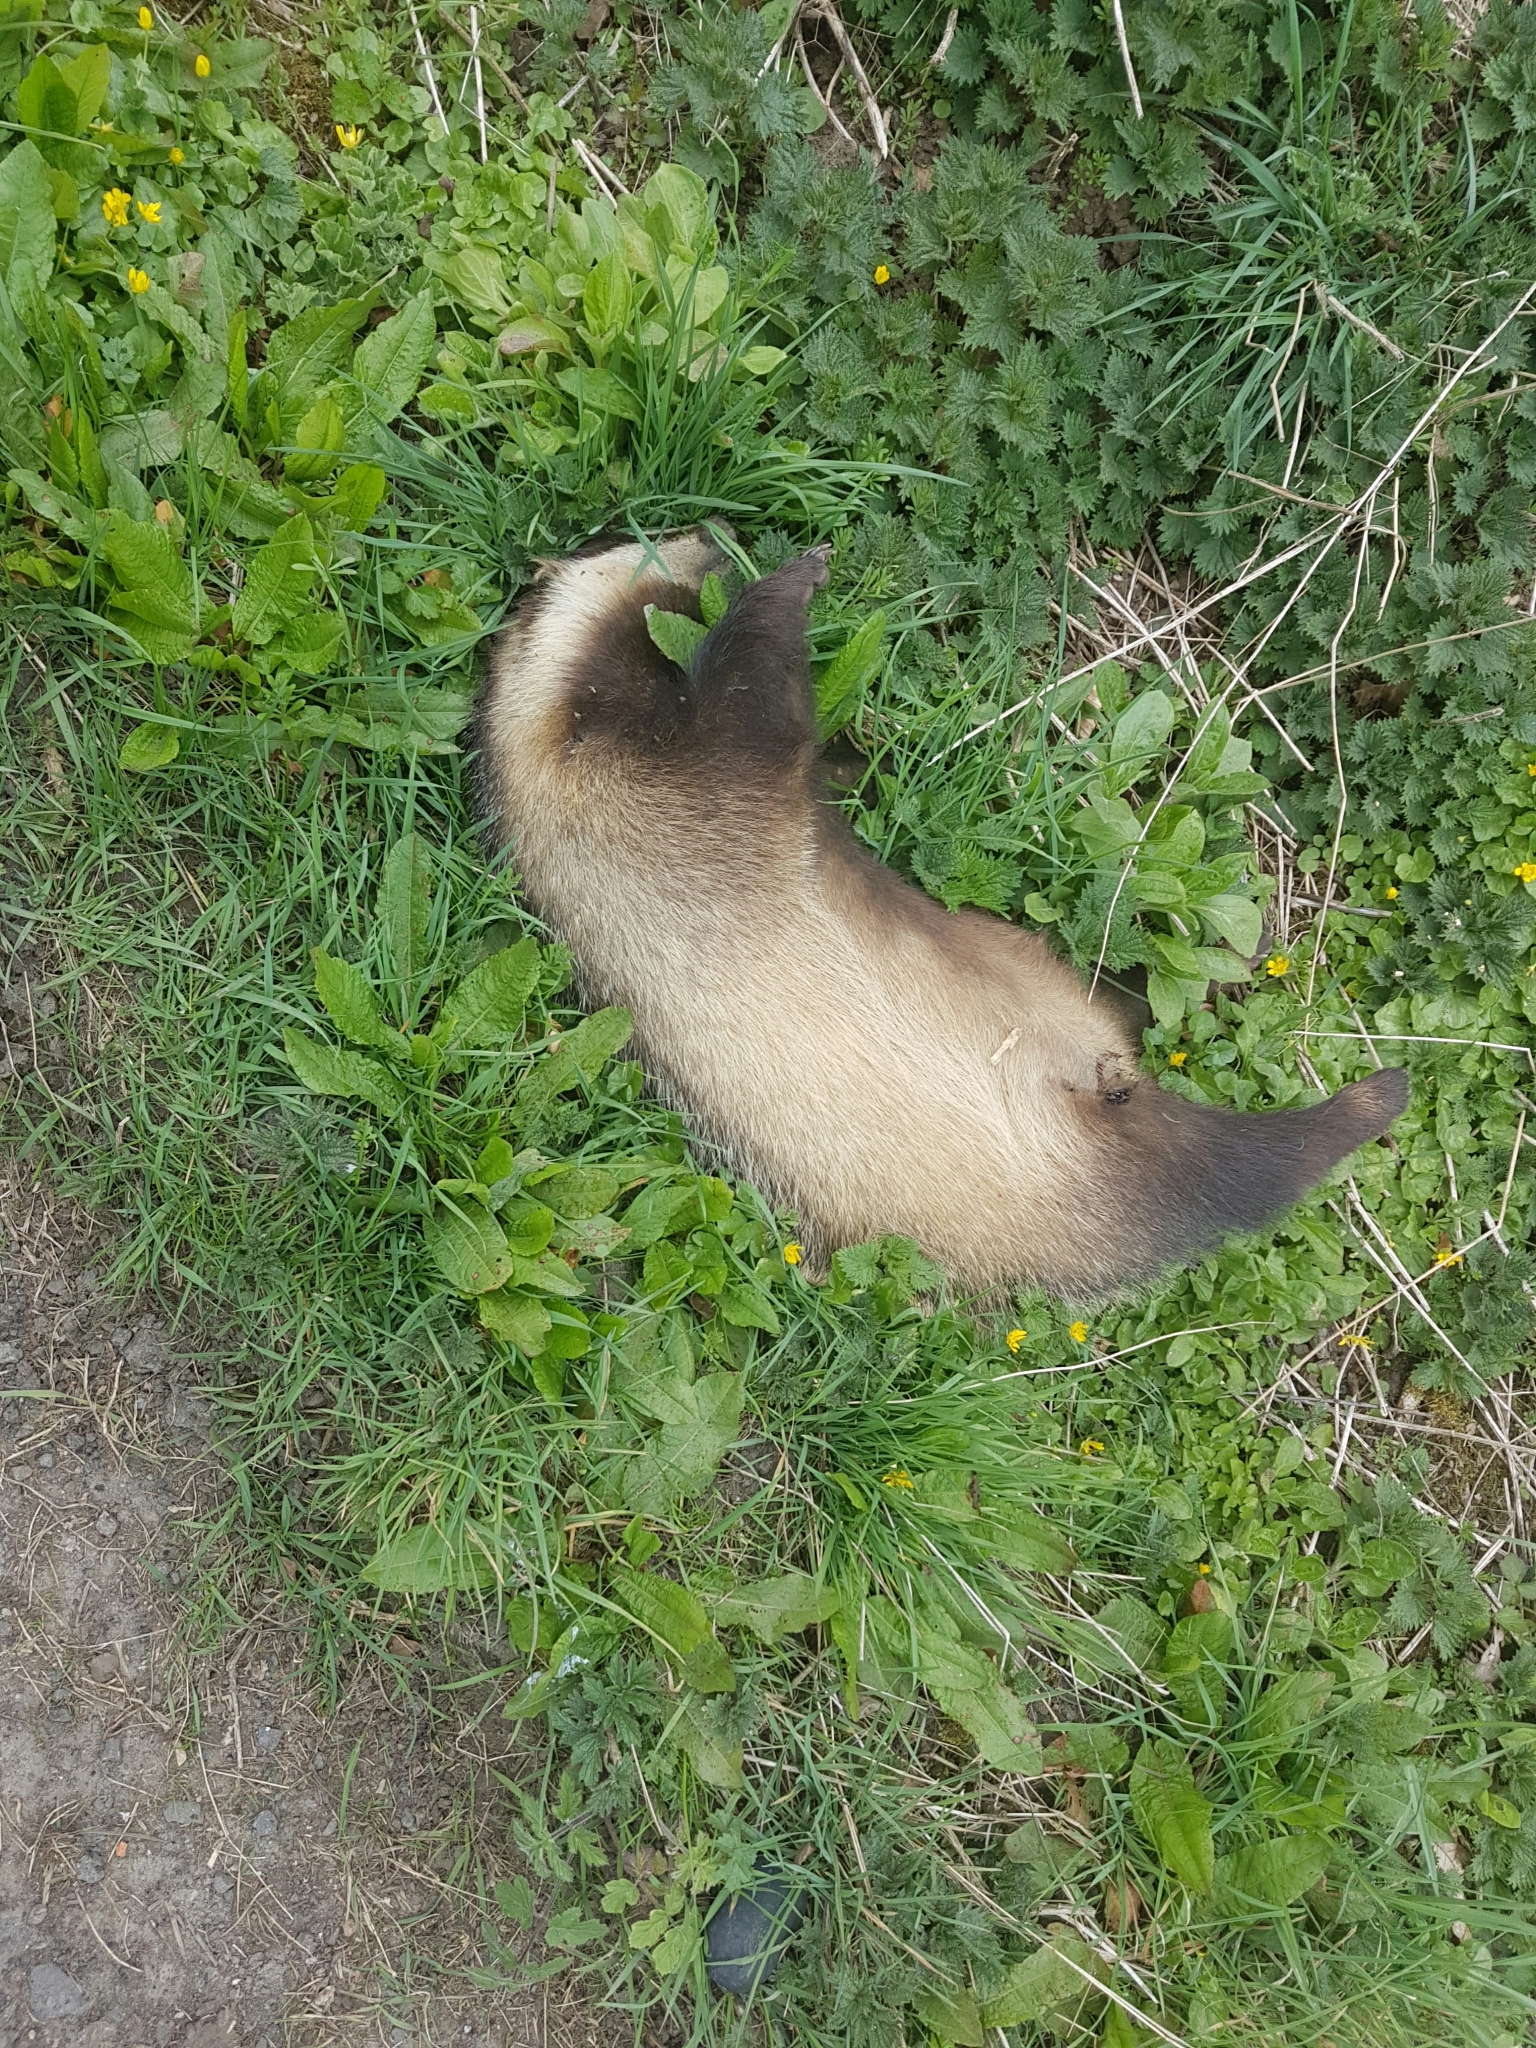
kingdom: Animalia
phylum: Chordata
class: Mammalia
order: Carnivora
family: Mustelidae
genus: Meles
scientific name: Meles meles
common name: Eurasian badger
